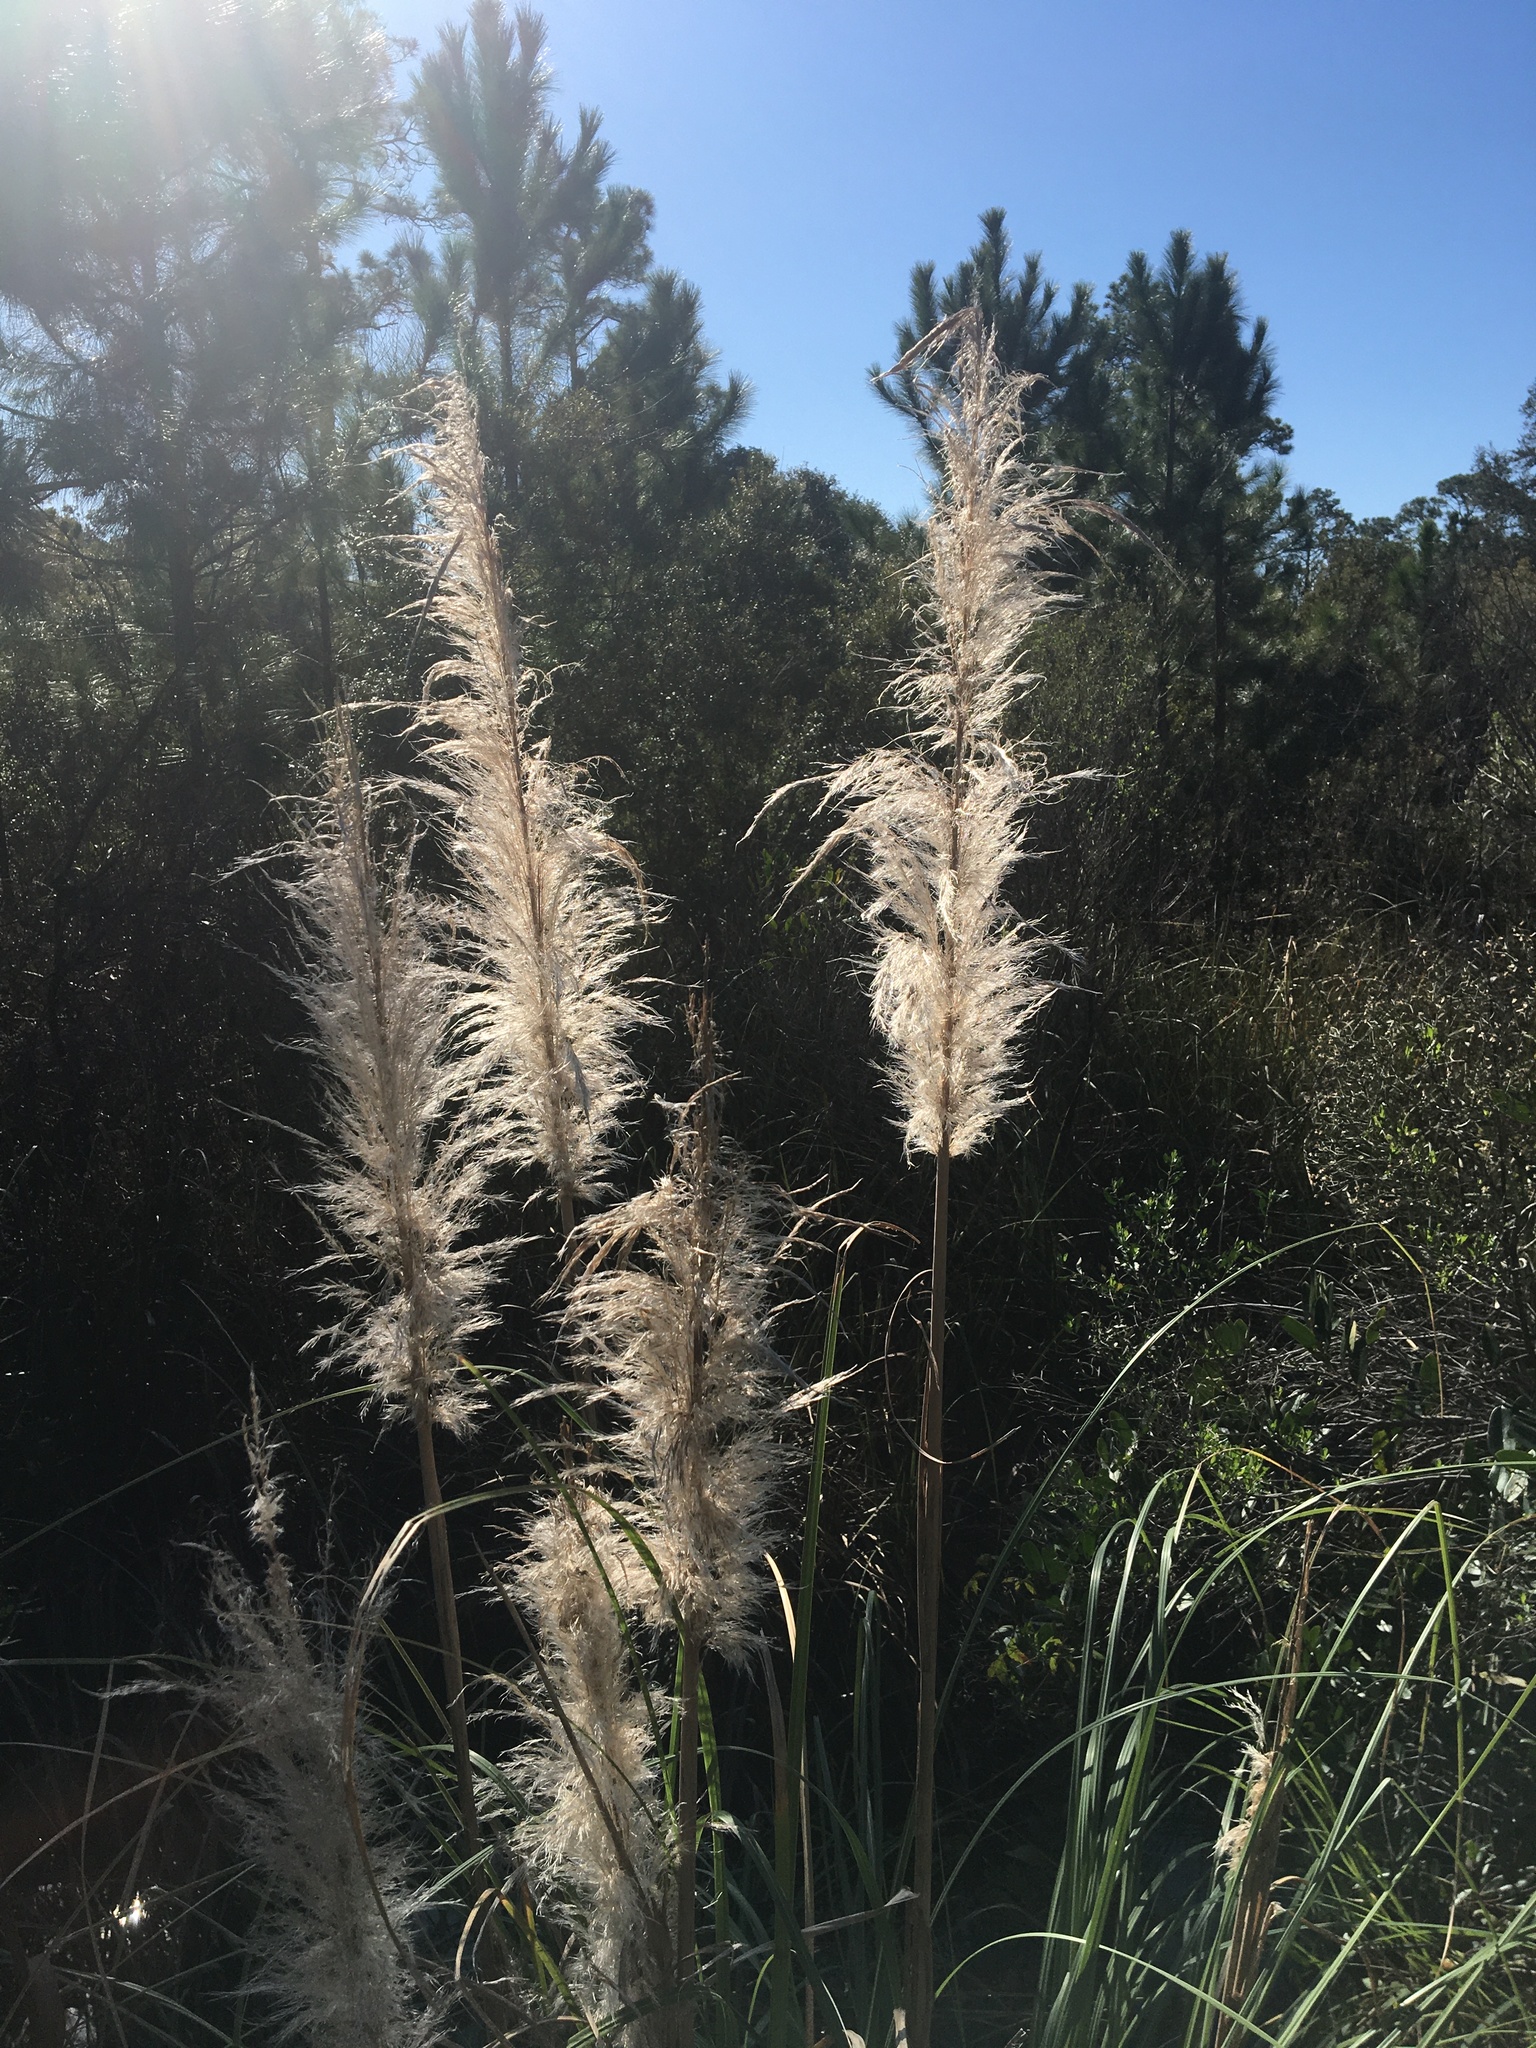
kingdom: Plantae
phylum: Tracheophyta
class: Liliopsida
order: Poales
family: Poaceae
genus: Cortaderia
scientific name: Cortaderia selloana
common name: Uruguayan pampas grass
